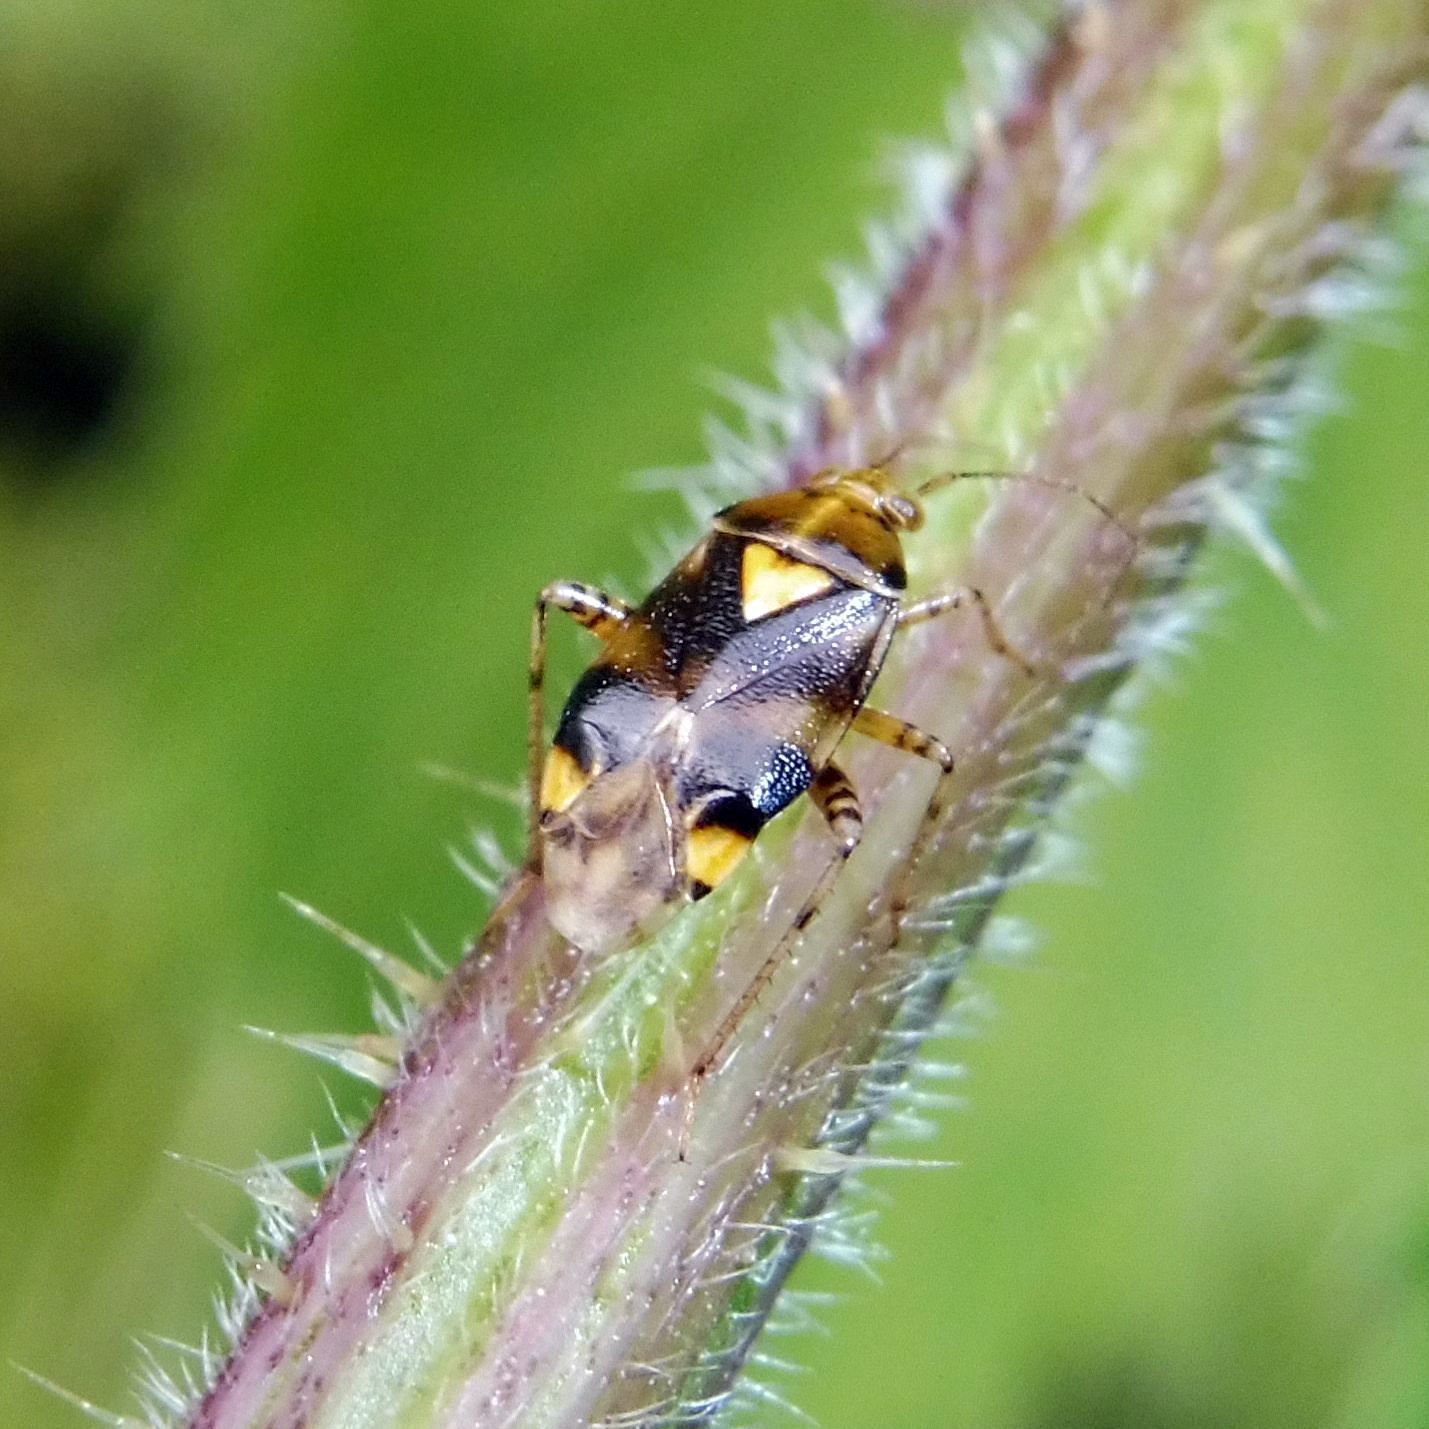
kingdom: Animalia
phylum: Arthropoda
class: Insecta
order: Hemiptera
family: Miridae
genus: Liocoris
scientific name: Liocoris tripustulatus
